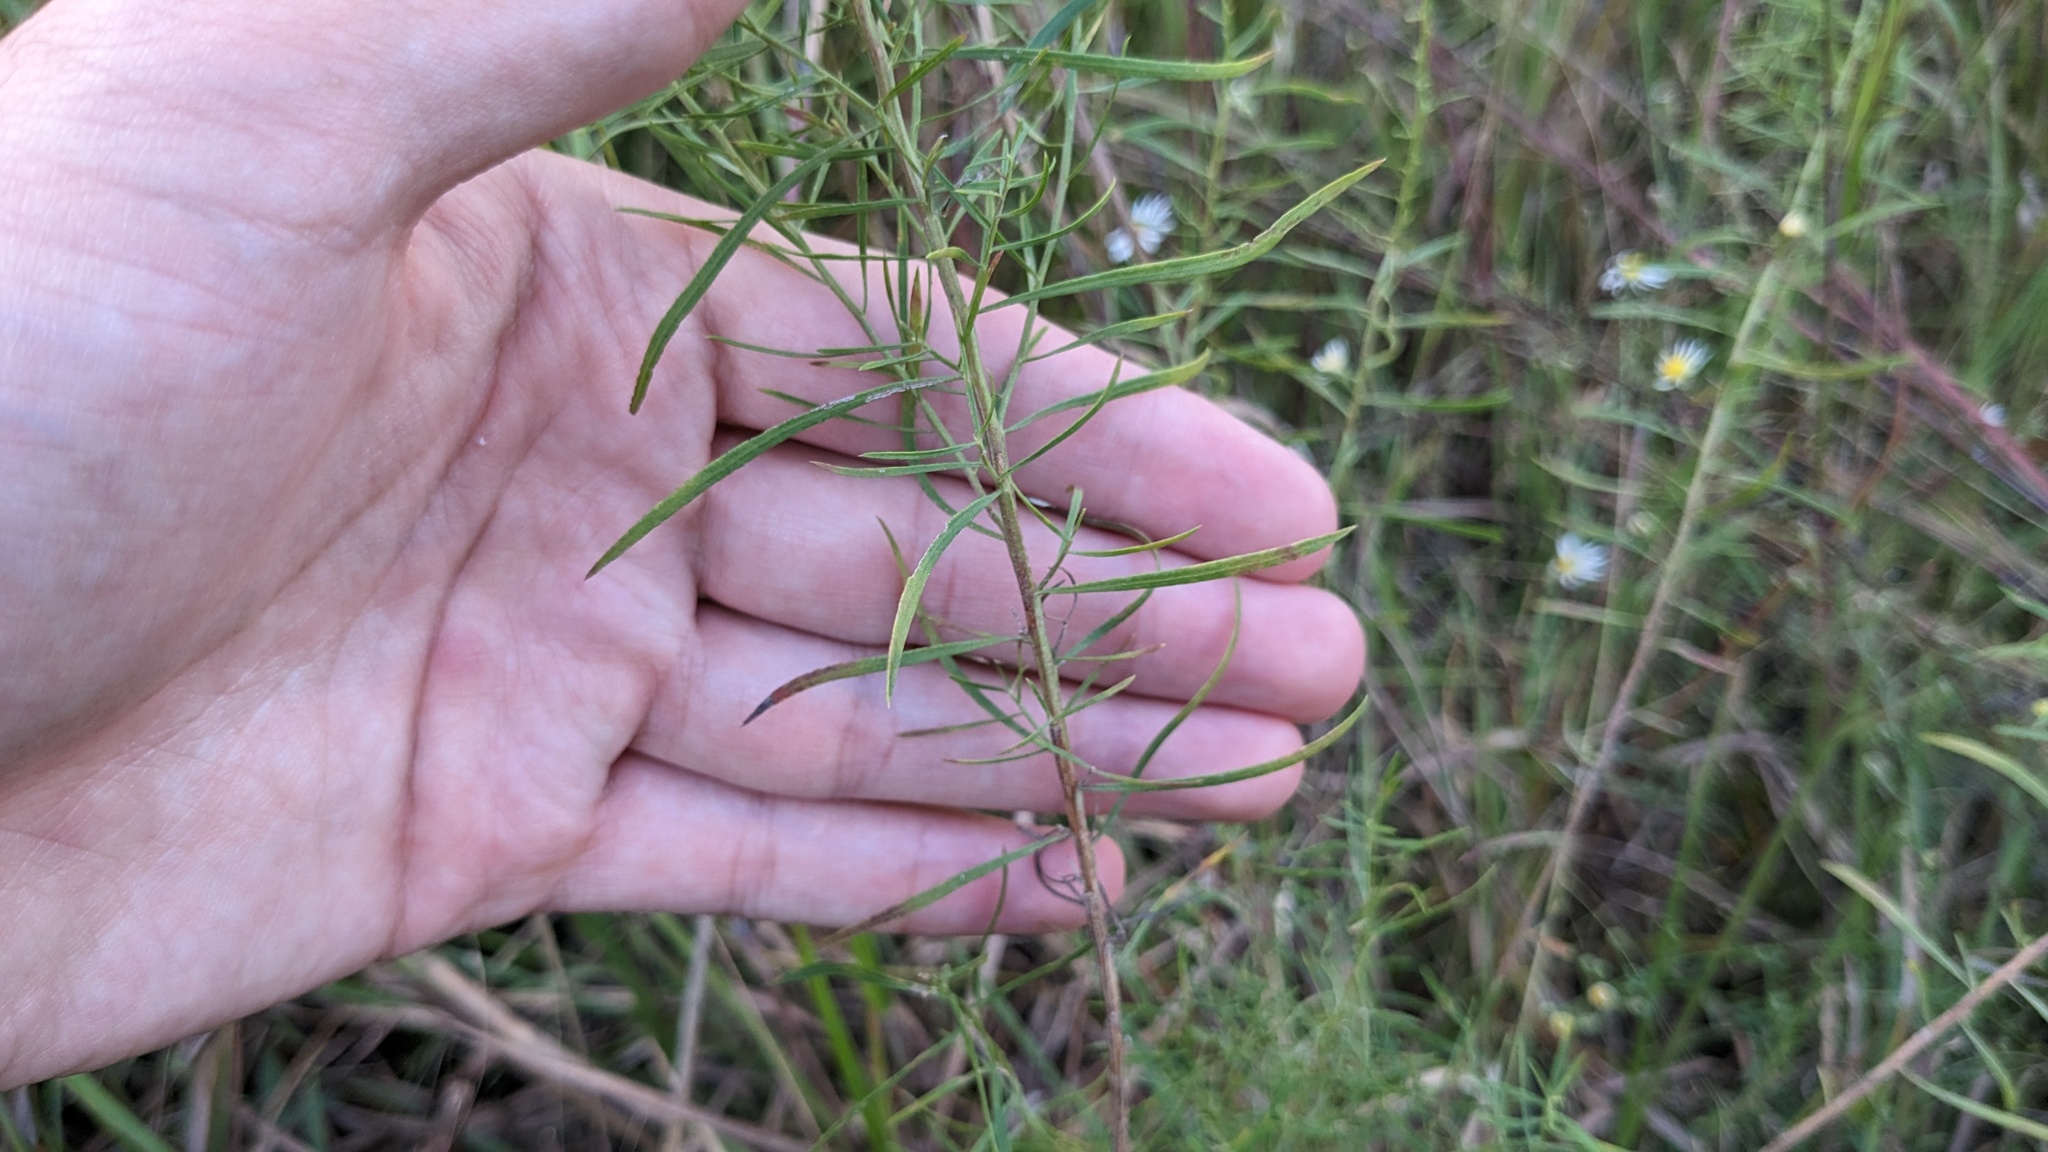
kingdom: Plantae
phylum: Tracheophyta
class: Magnoliopsida
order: Asterales
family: Asteraceae
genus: Euthamia
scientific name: Euthamia caroliniana
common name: Coastal plain goldentop
